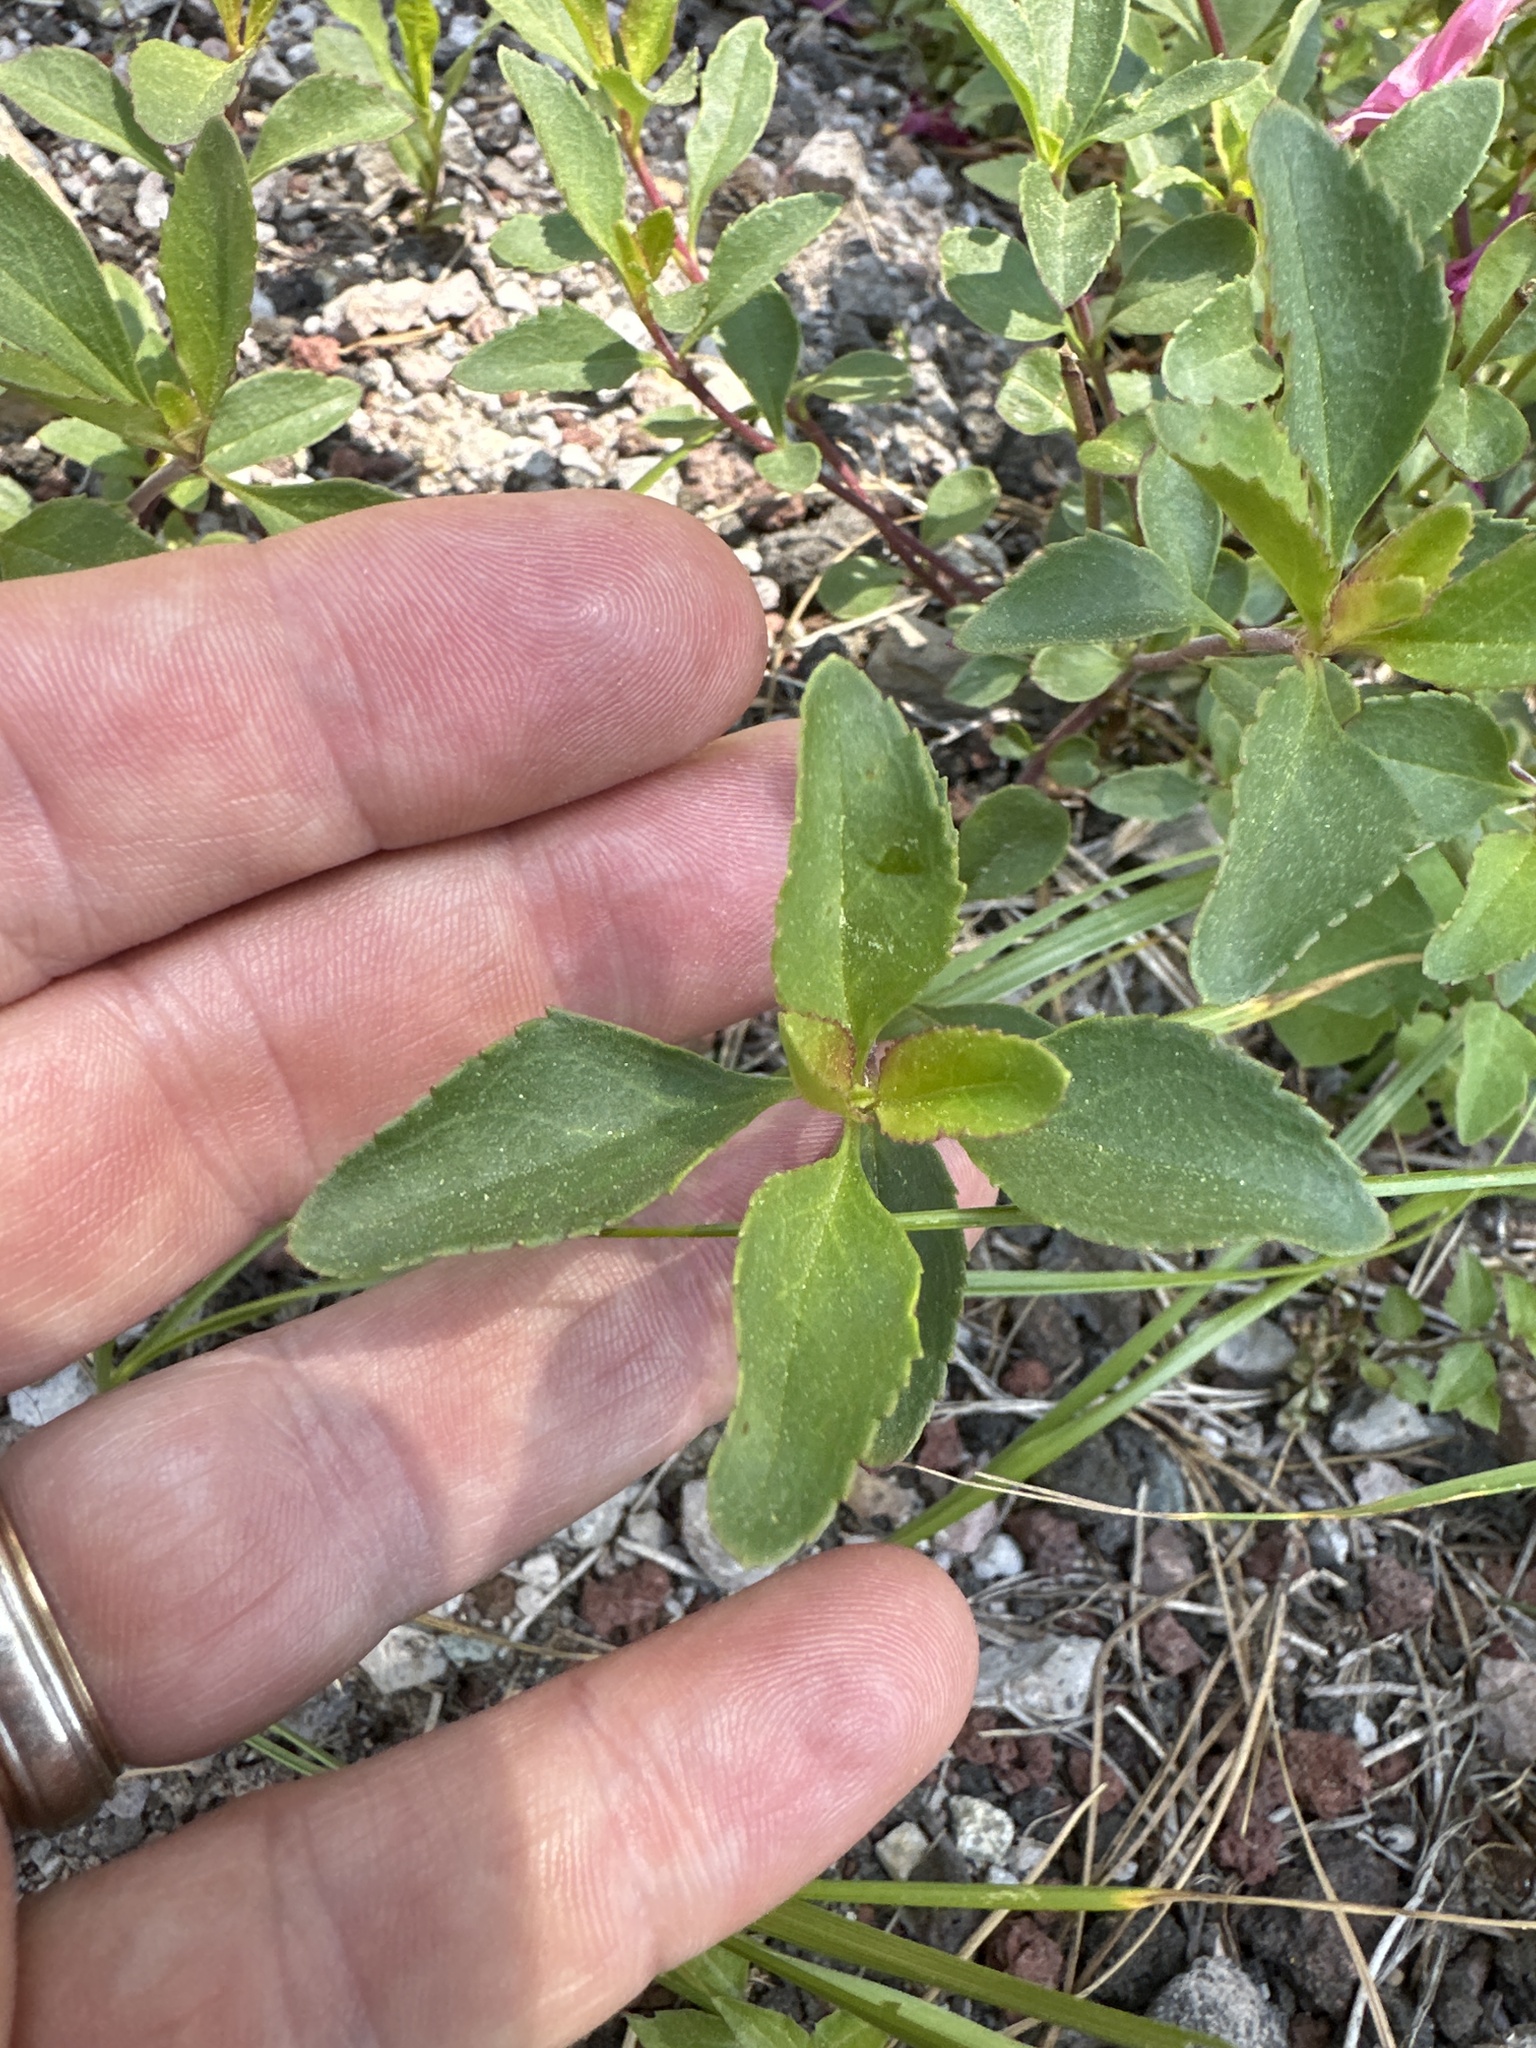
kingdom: Plantae
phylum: Tracheophyta
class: Magnoliopsida
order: Lamiales
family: Plantaginaceae
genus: Penstemon
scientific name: Penstemon newberryi
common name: Mountain-pride
